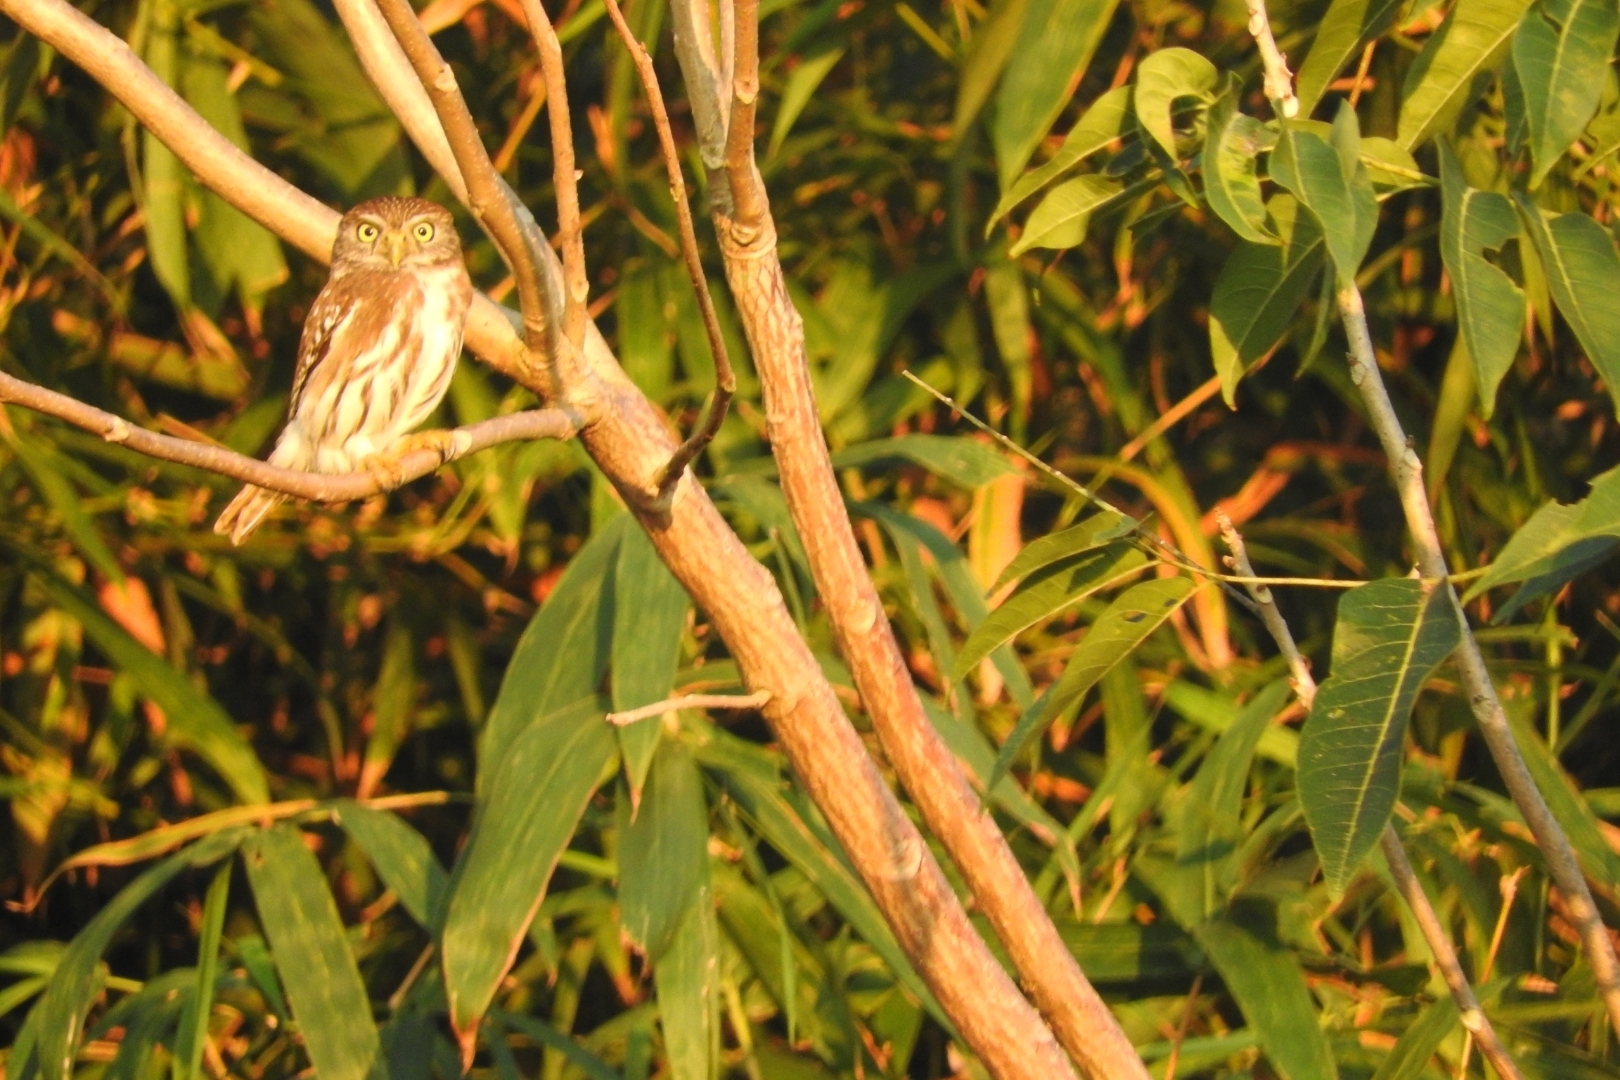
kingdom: Animalia
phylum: Chordata
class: Aves
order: Strigiformes
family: Strigidae
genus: Glaucidium
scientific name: Glaucidium brasilianum
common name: Ferruginous pygmy-owl
